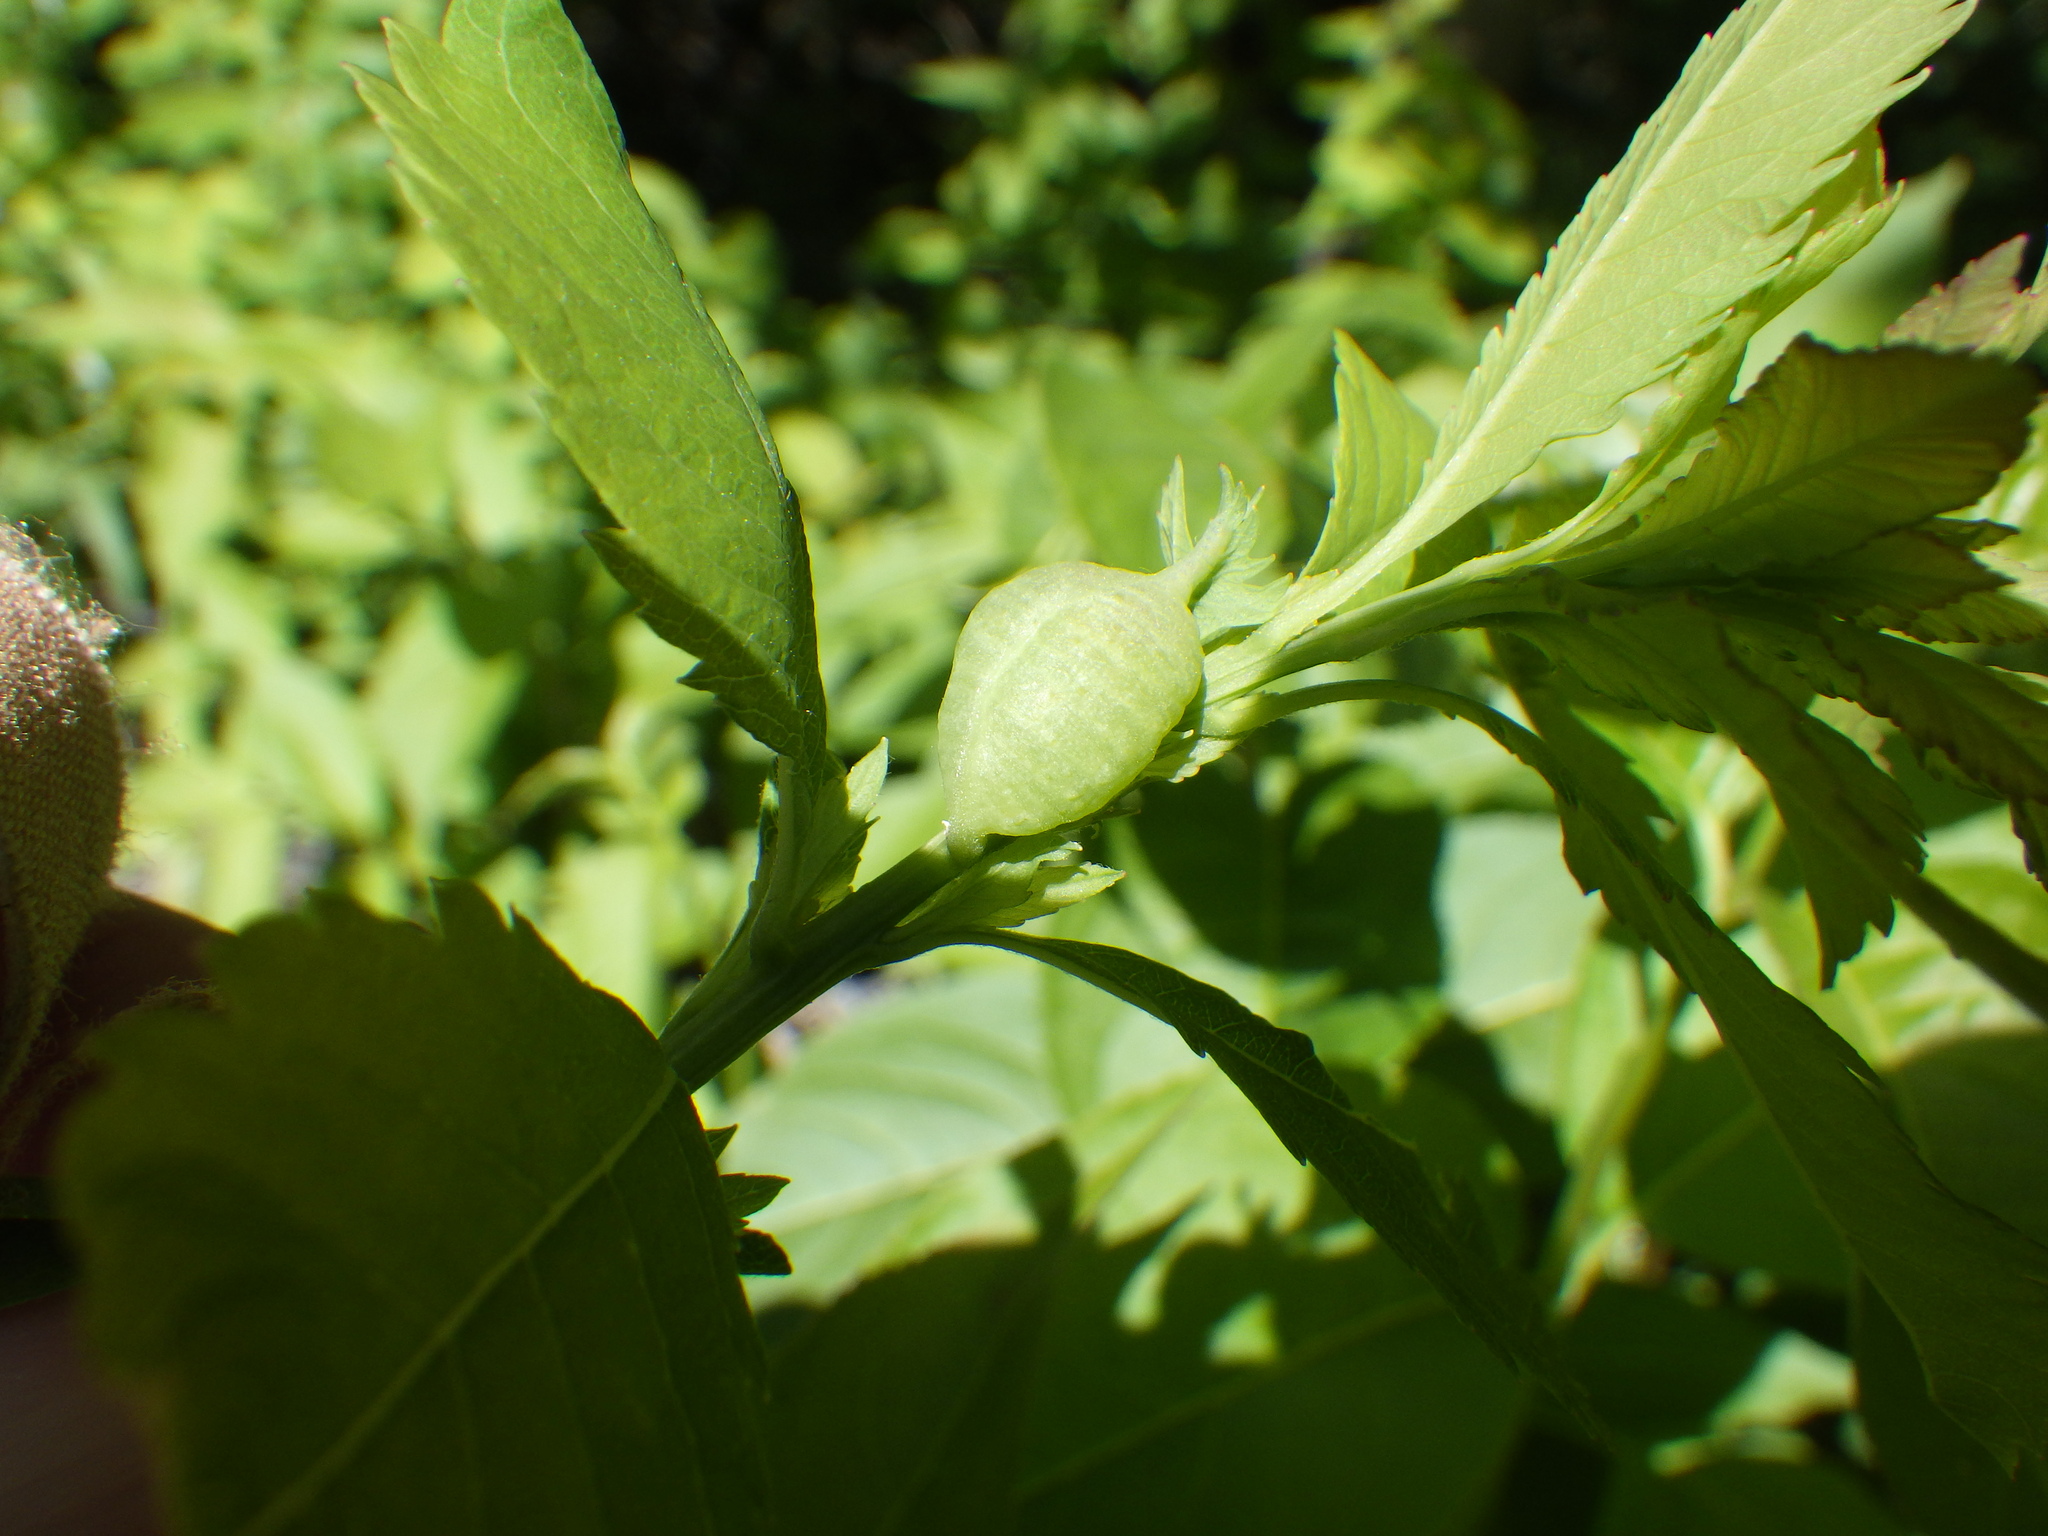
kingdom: Animalia
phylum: Arthropoda
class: Insecta
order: Diptera
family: Cecidomyiidae
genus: Dasineura
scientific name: Dasineura salicifoliae
